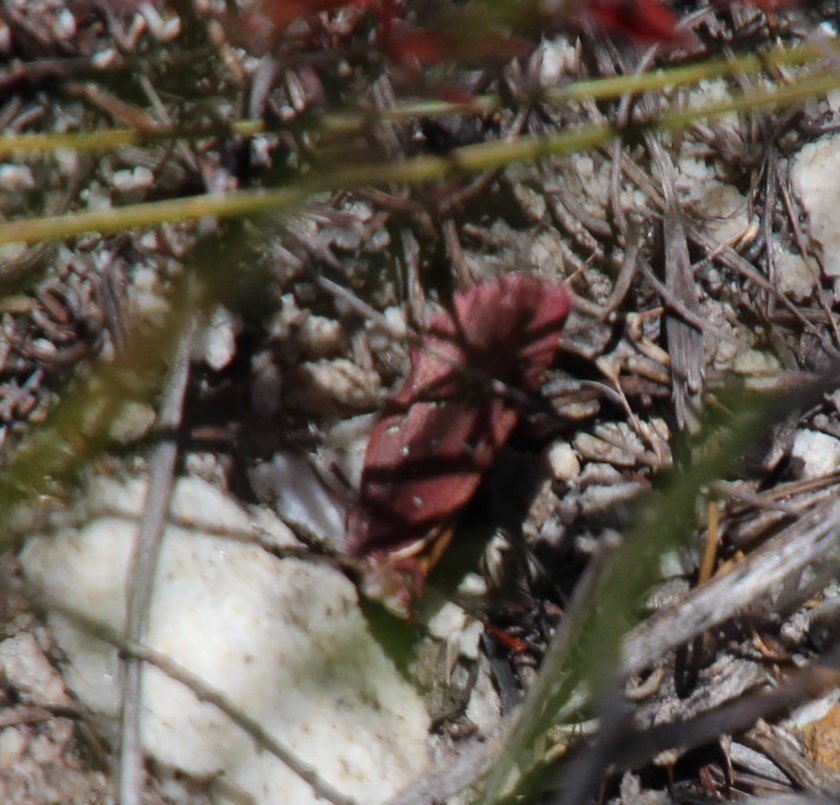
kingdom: Animalia
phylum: Arthropoda
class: Insecta
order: Lepidoptera
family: Lycaenidae
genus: Aloeides
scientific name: Aloeides aranda
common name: Aranda copper
